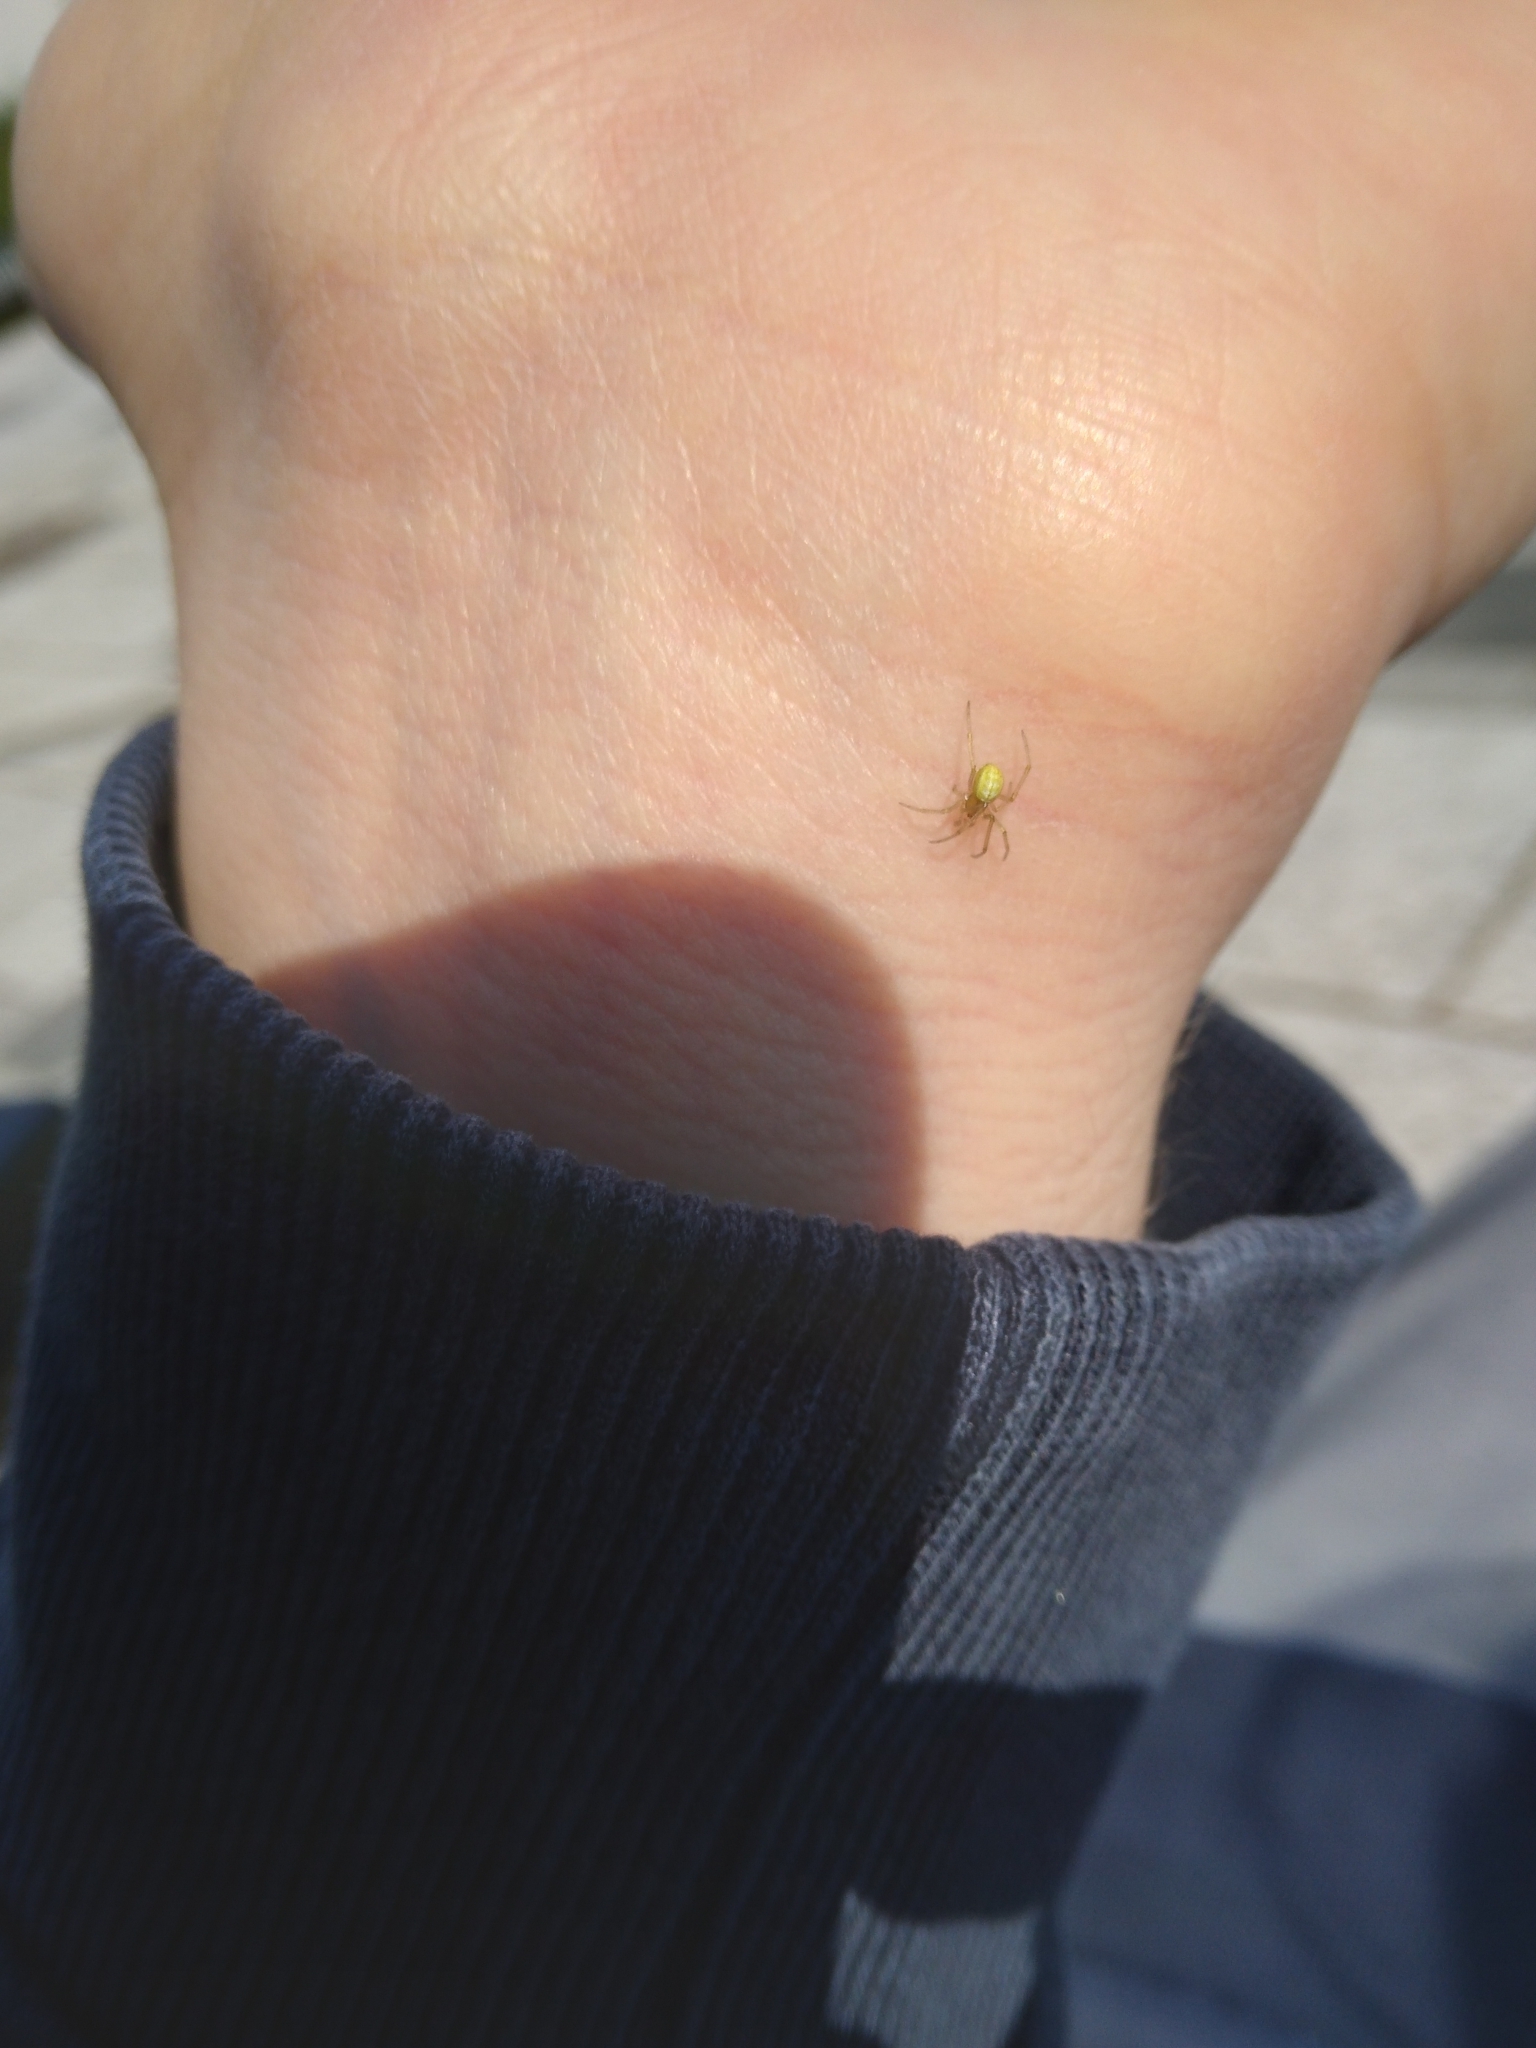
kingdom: Animalia
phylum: Arthropoda
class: Arachnida
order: Araneae
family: Theridiidae
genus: Enoplognatha
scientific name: Enoplognatha ovata
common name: Common candy-striped spider
